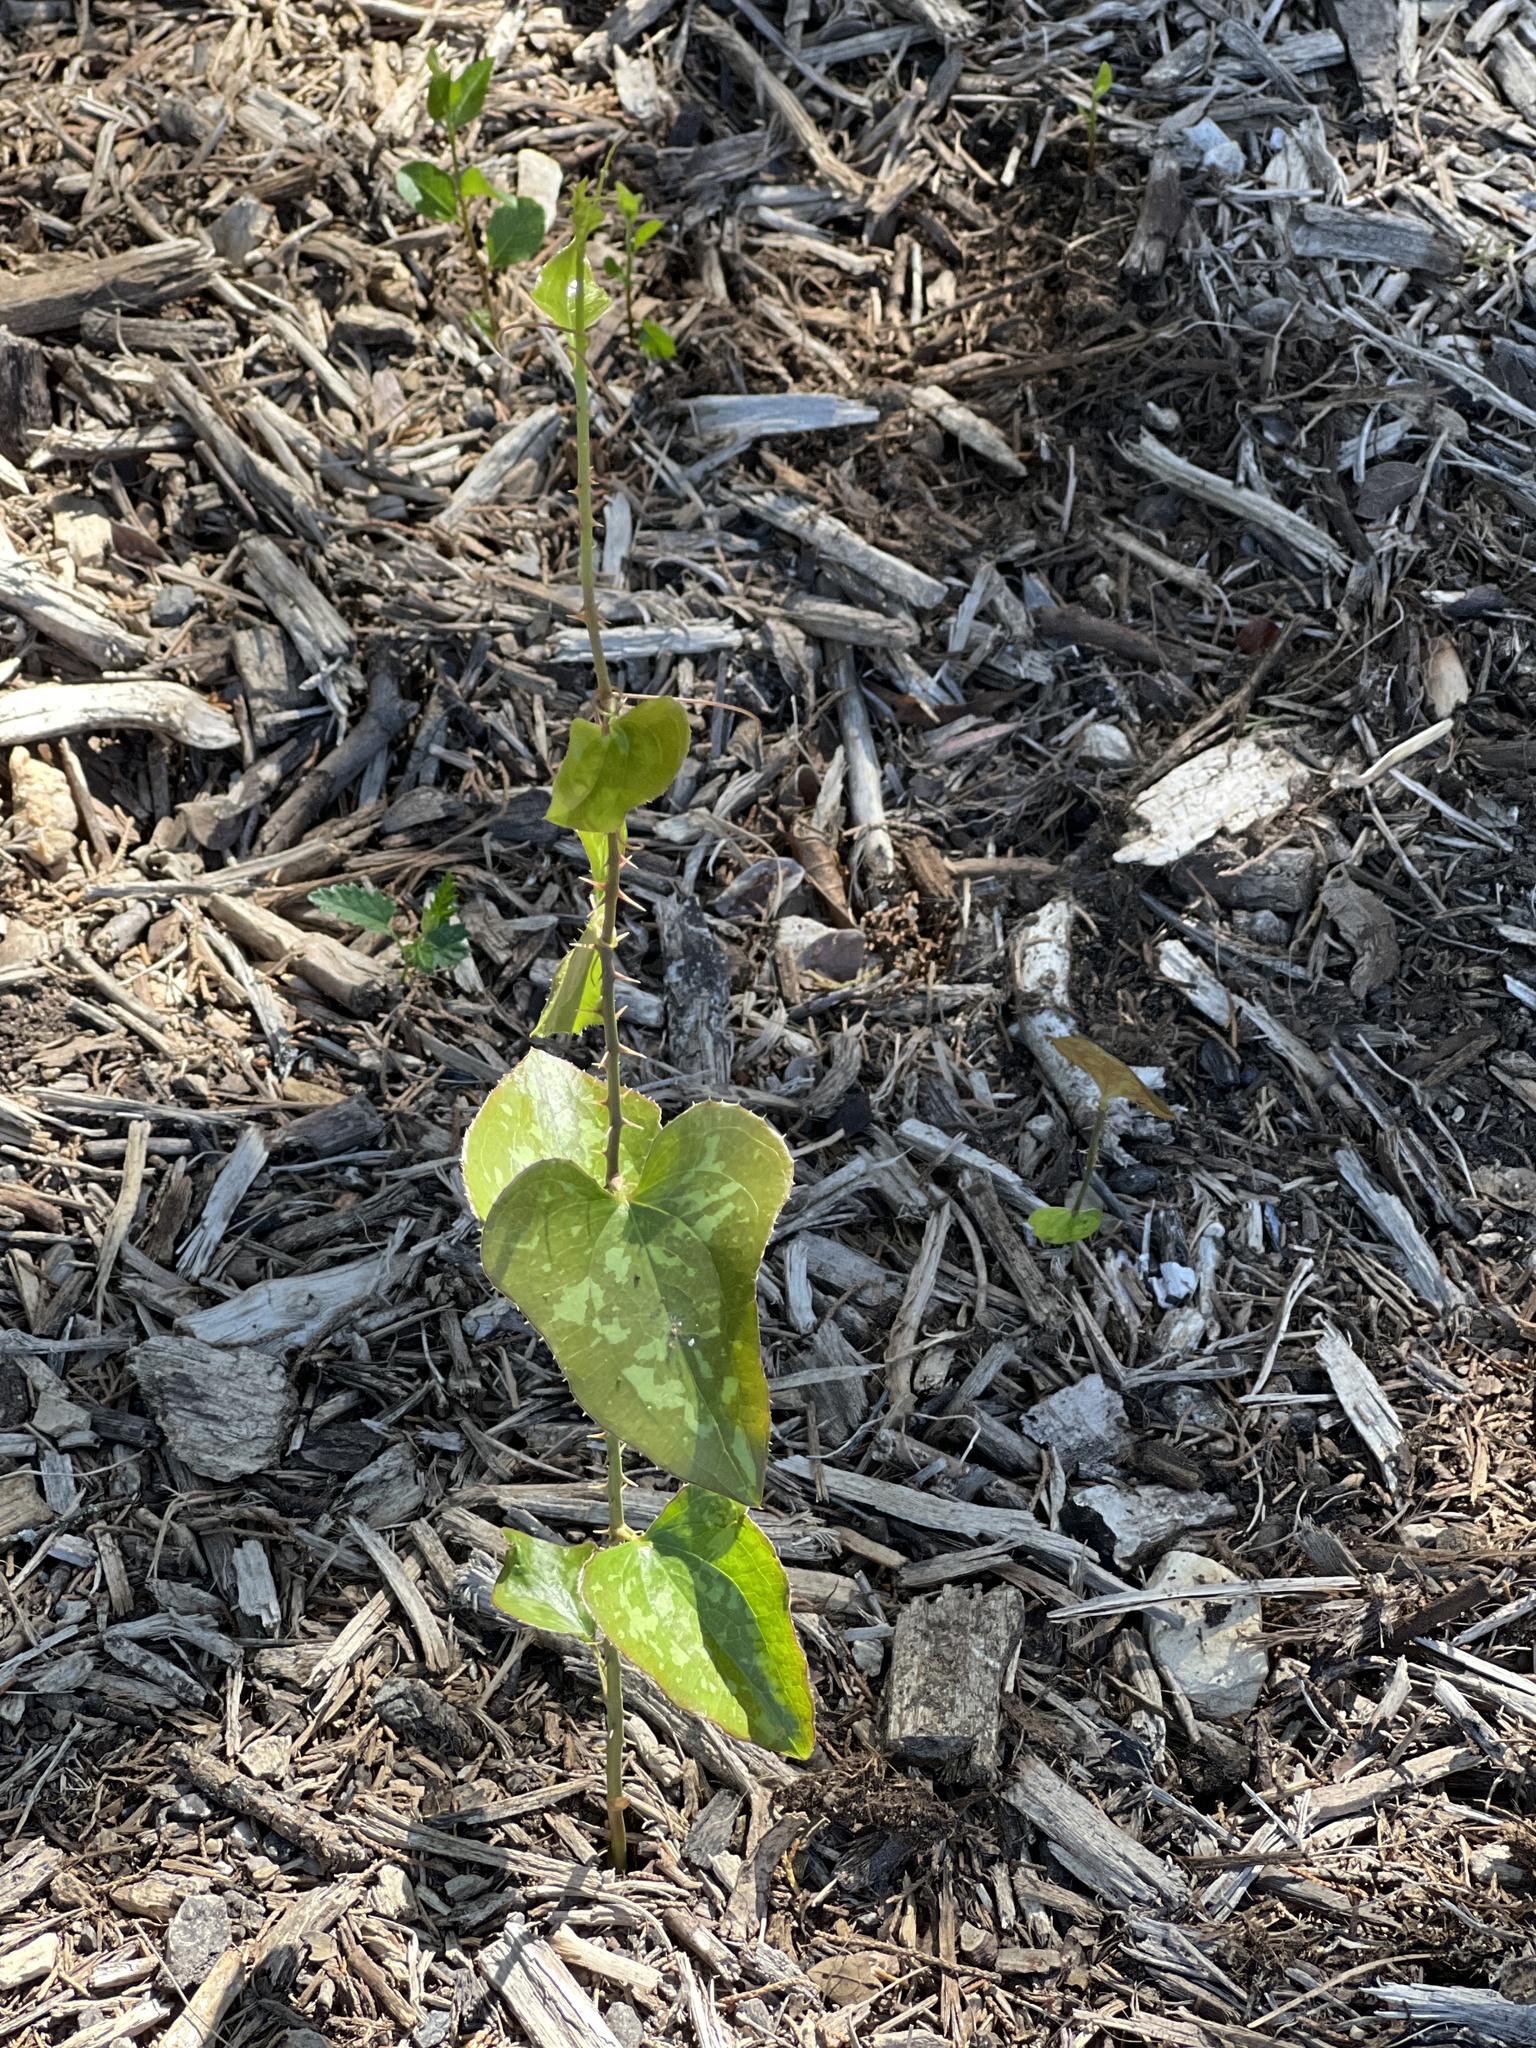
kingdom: Plantae
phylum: Tracheophyta
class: Liliopsida
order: Liliales
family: Smilacaceae
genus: Smilax
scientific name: Smilax bona-nox
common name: Catbrier
